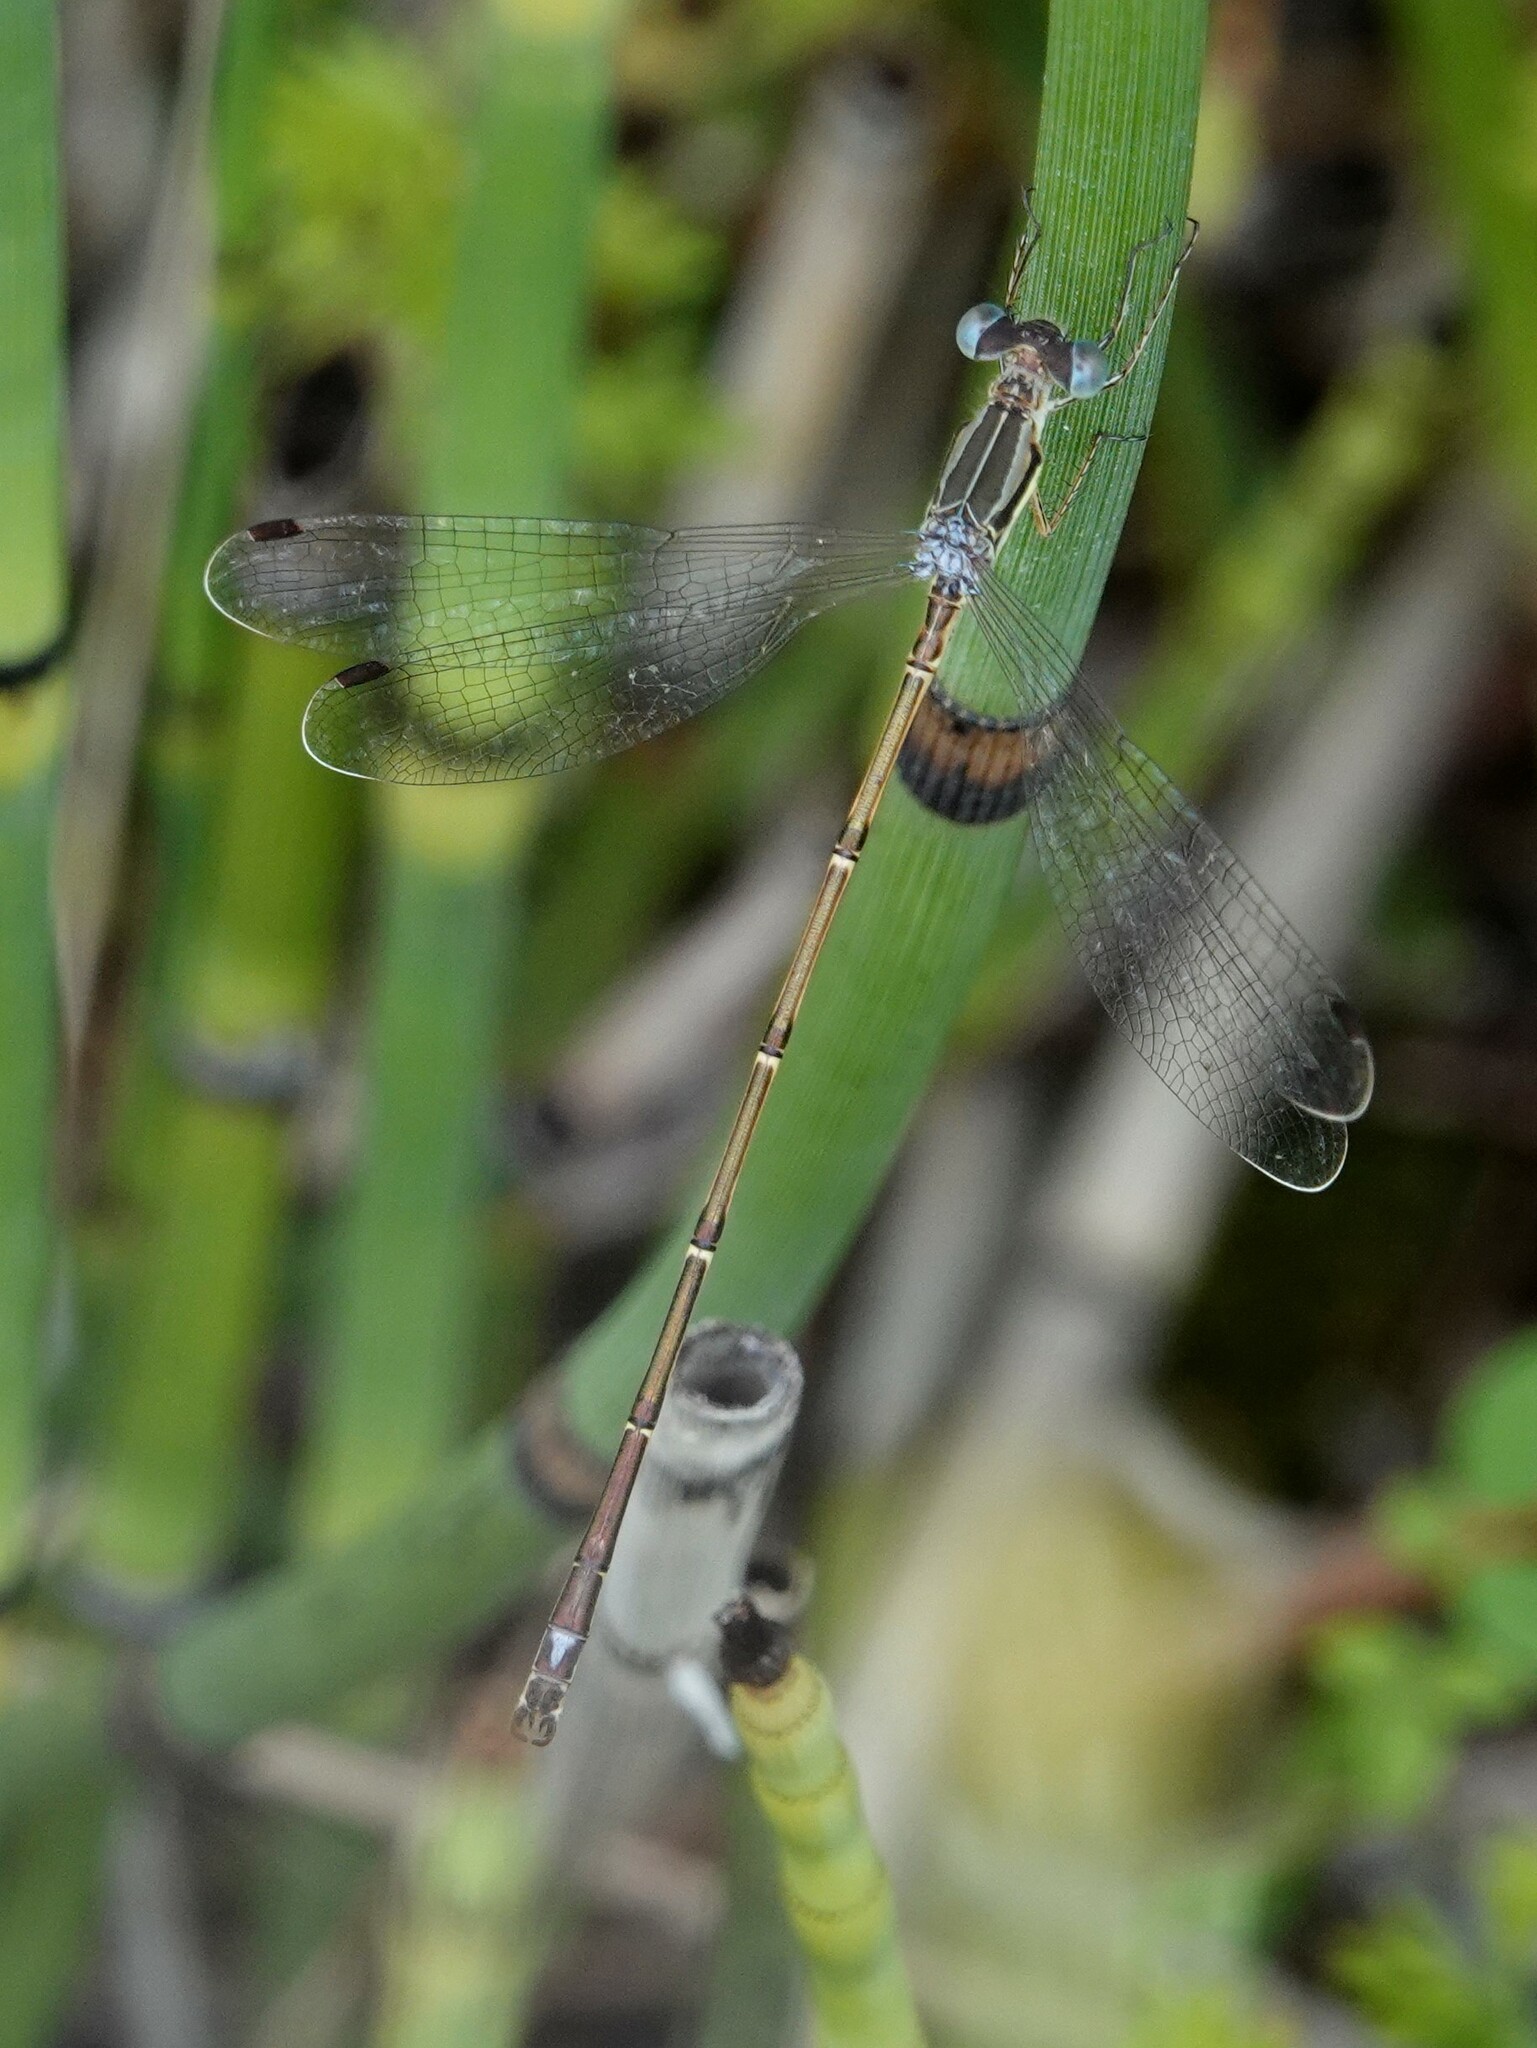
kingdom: Animalia
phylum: Arthropoda
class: Insecta
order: Odonata
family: Lestidae
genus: Lestes
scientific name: Lestes rectangularis
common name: Slender spreadwing
